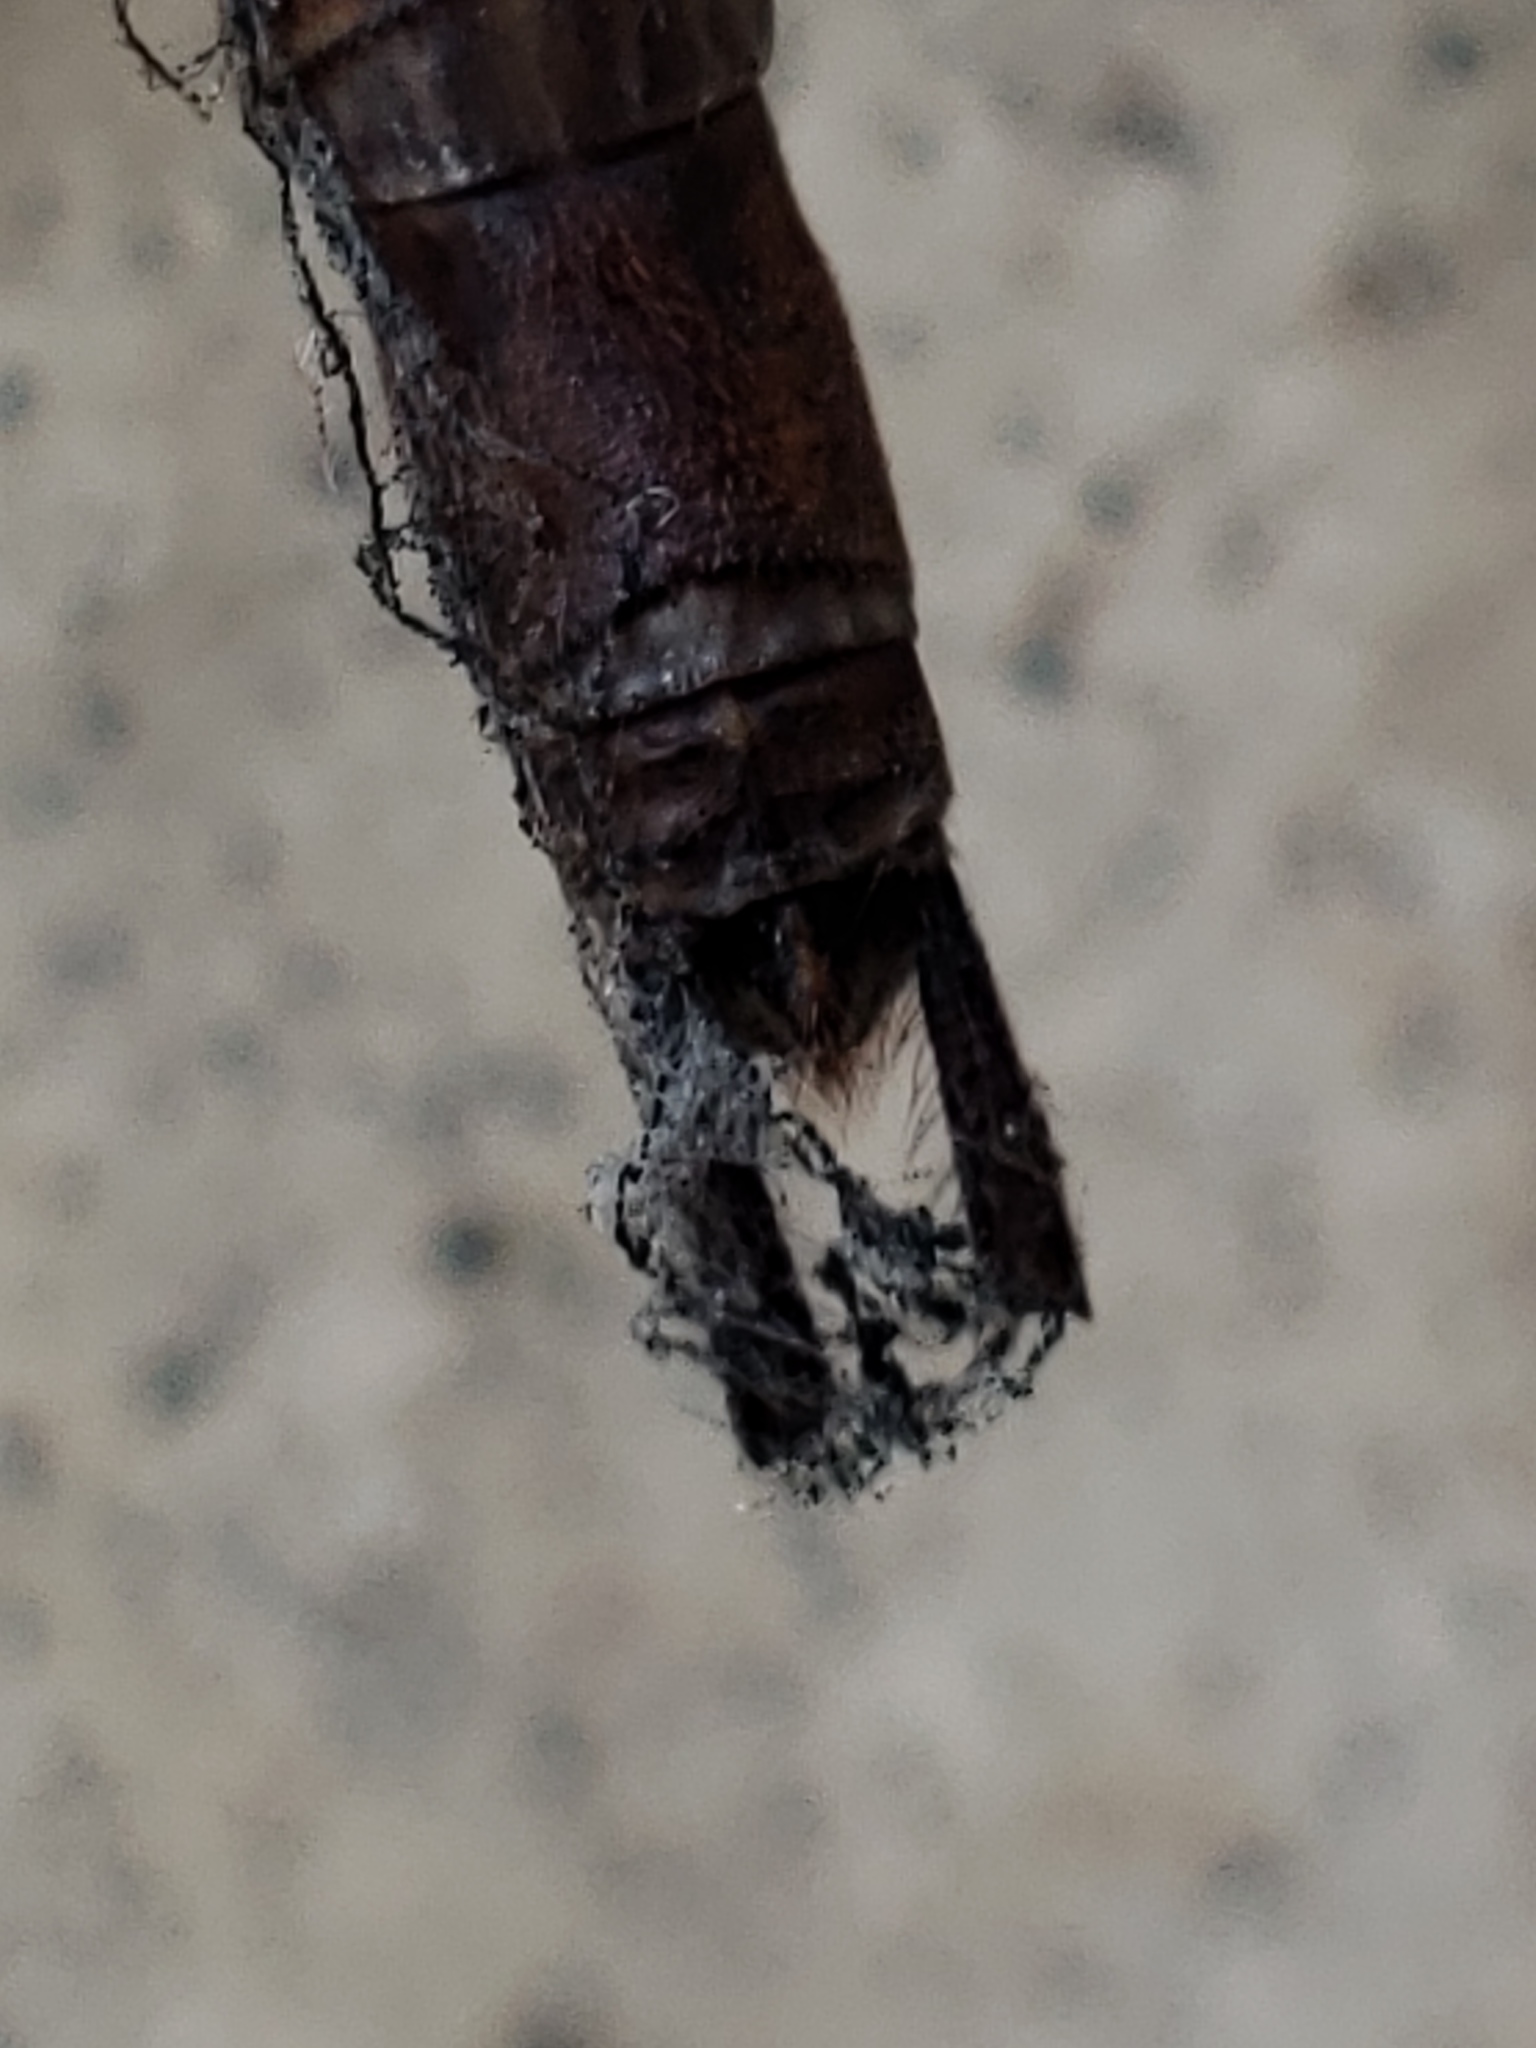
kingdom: Animalia
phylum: Arthropoda
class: Insecta
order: Odonata
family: Aeshnidae
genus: Gynacantha
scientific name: Gynacantha nervosa
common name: Twilight darner
